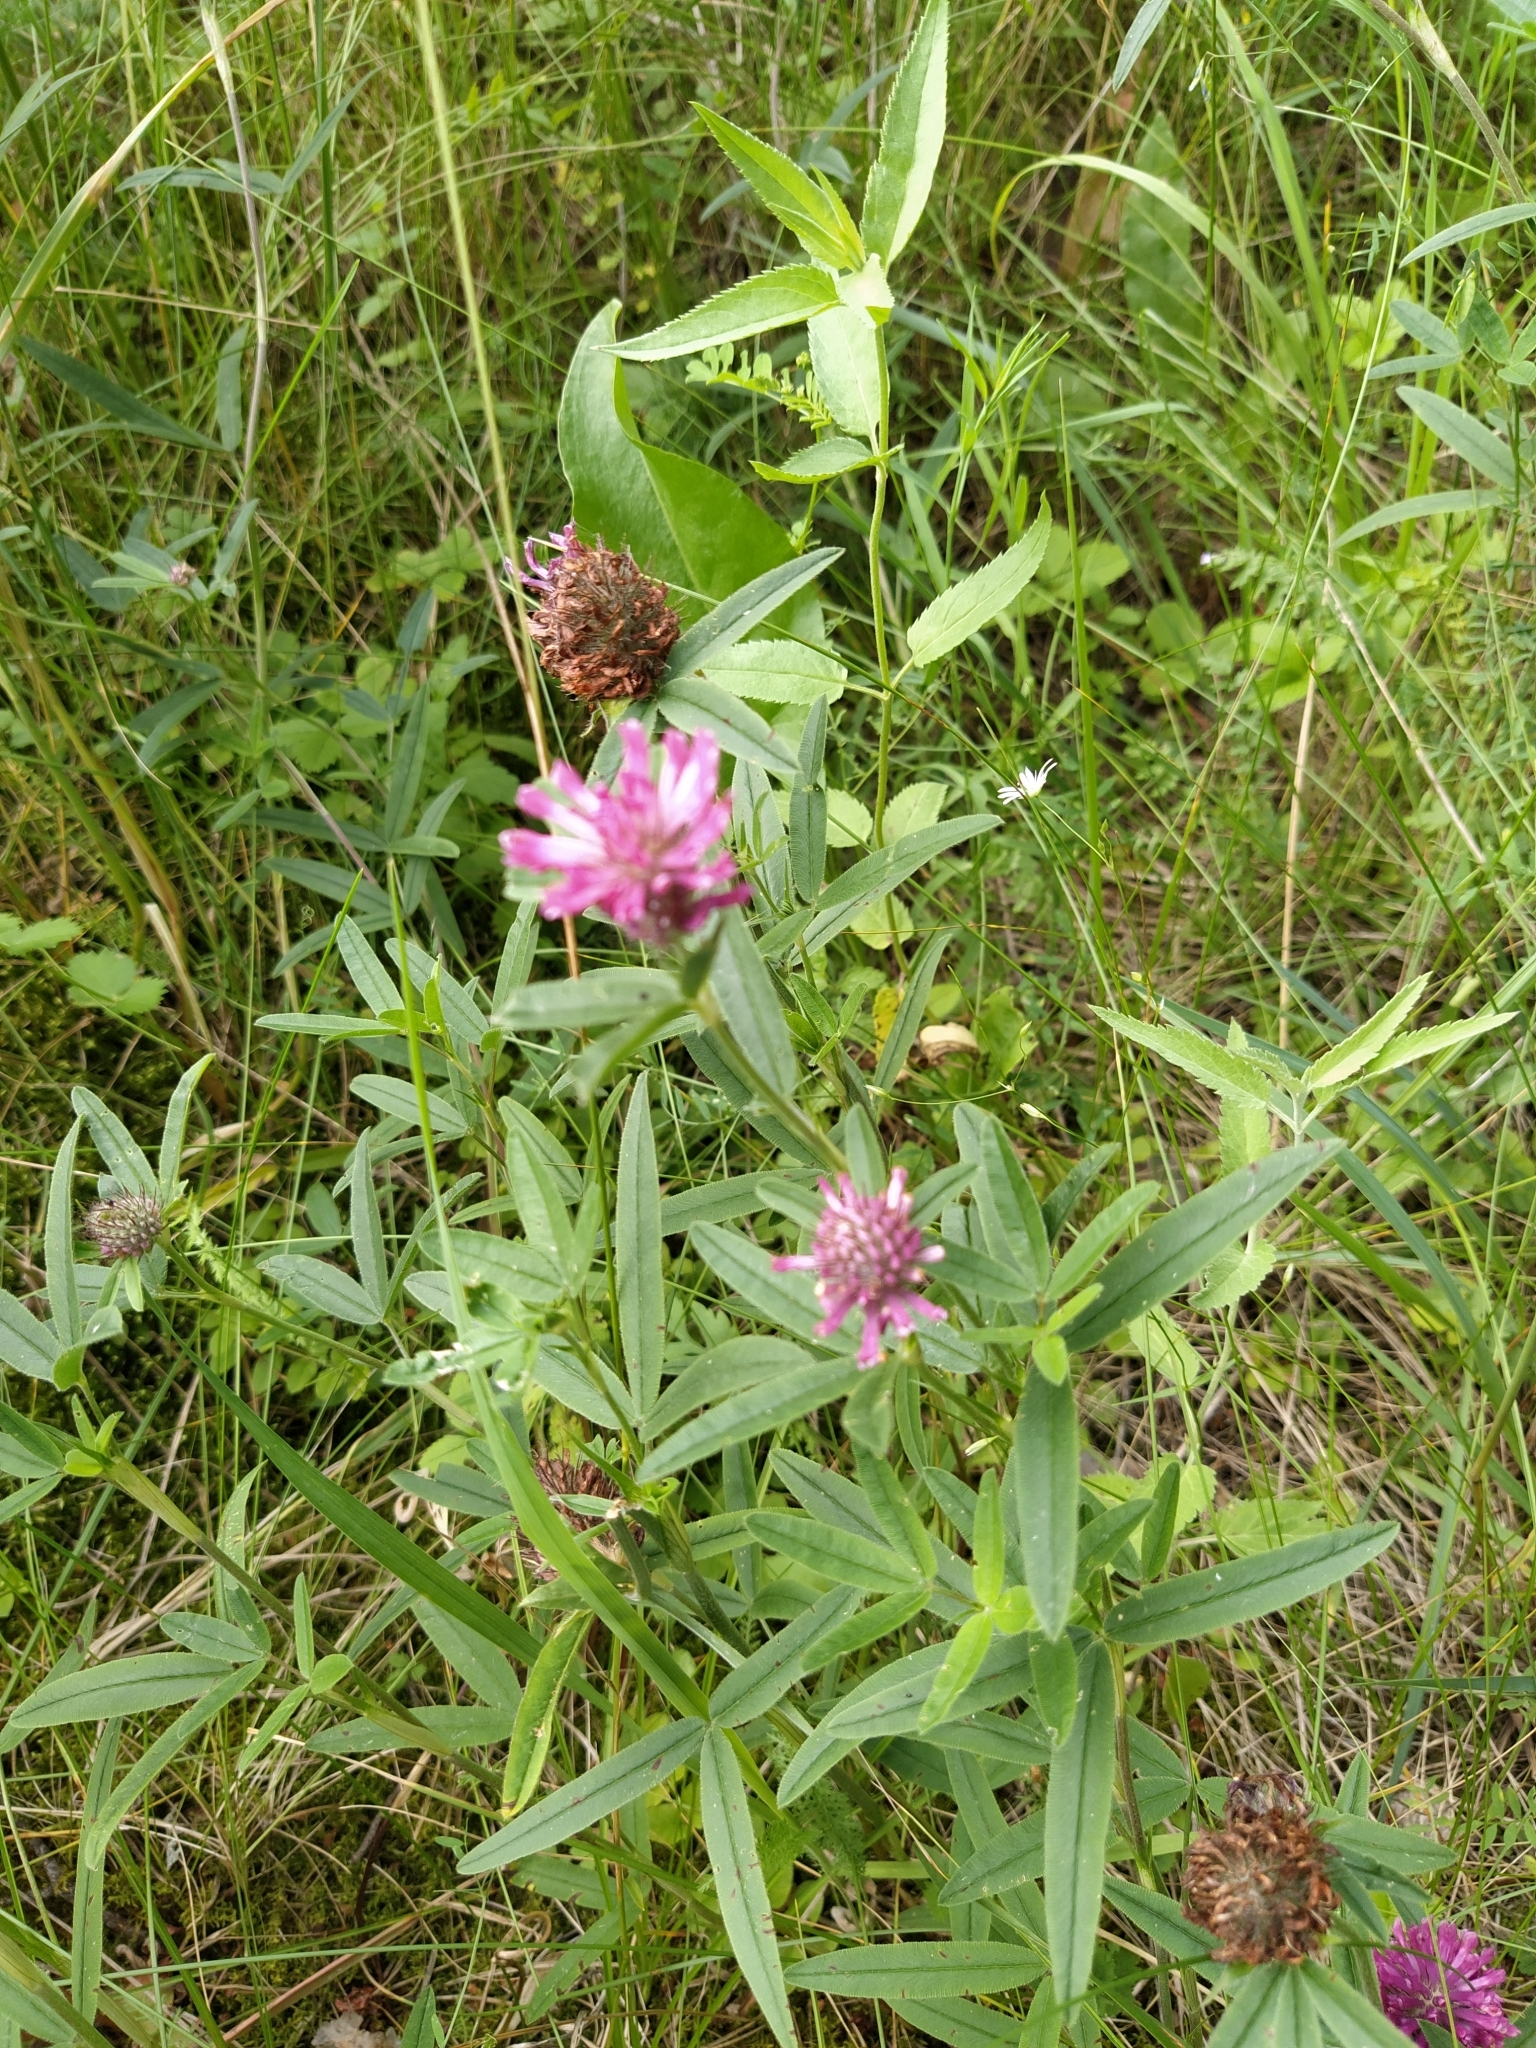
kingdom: Plantae
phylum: Tracheophyta
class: Magnoliopsida
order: Fabales
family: Fabaceae
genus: Trifolium
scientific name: Trifolium alpestre
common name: Owl-head clover
